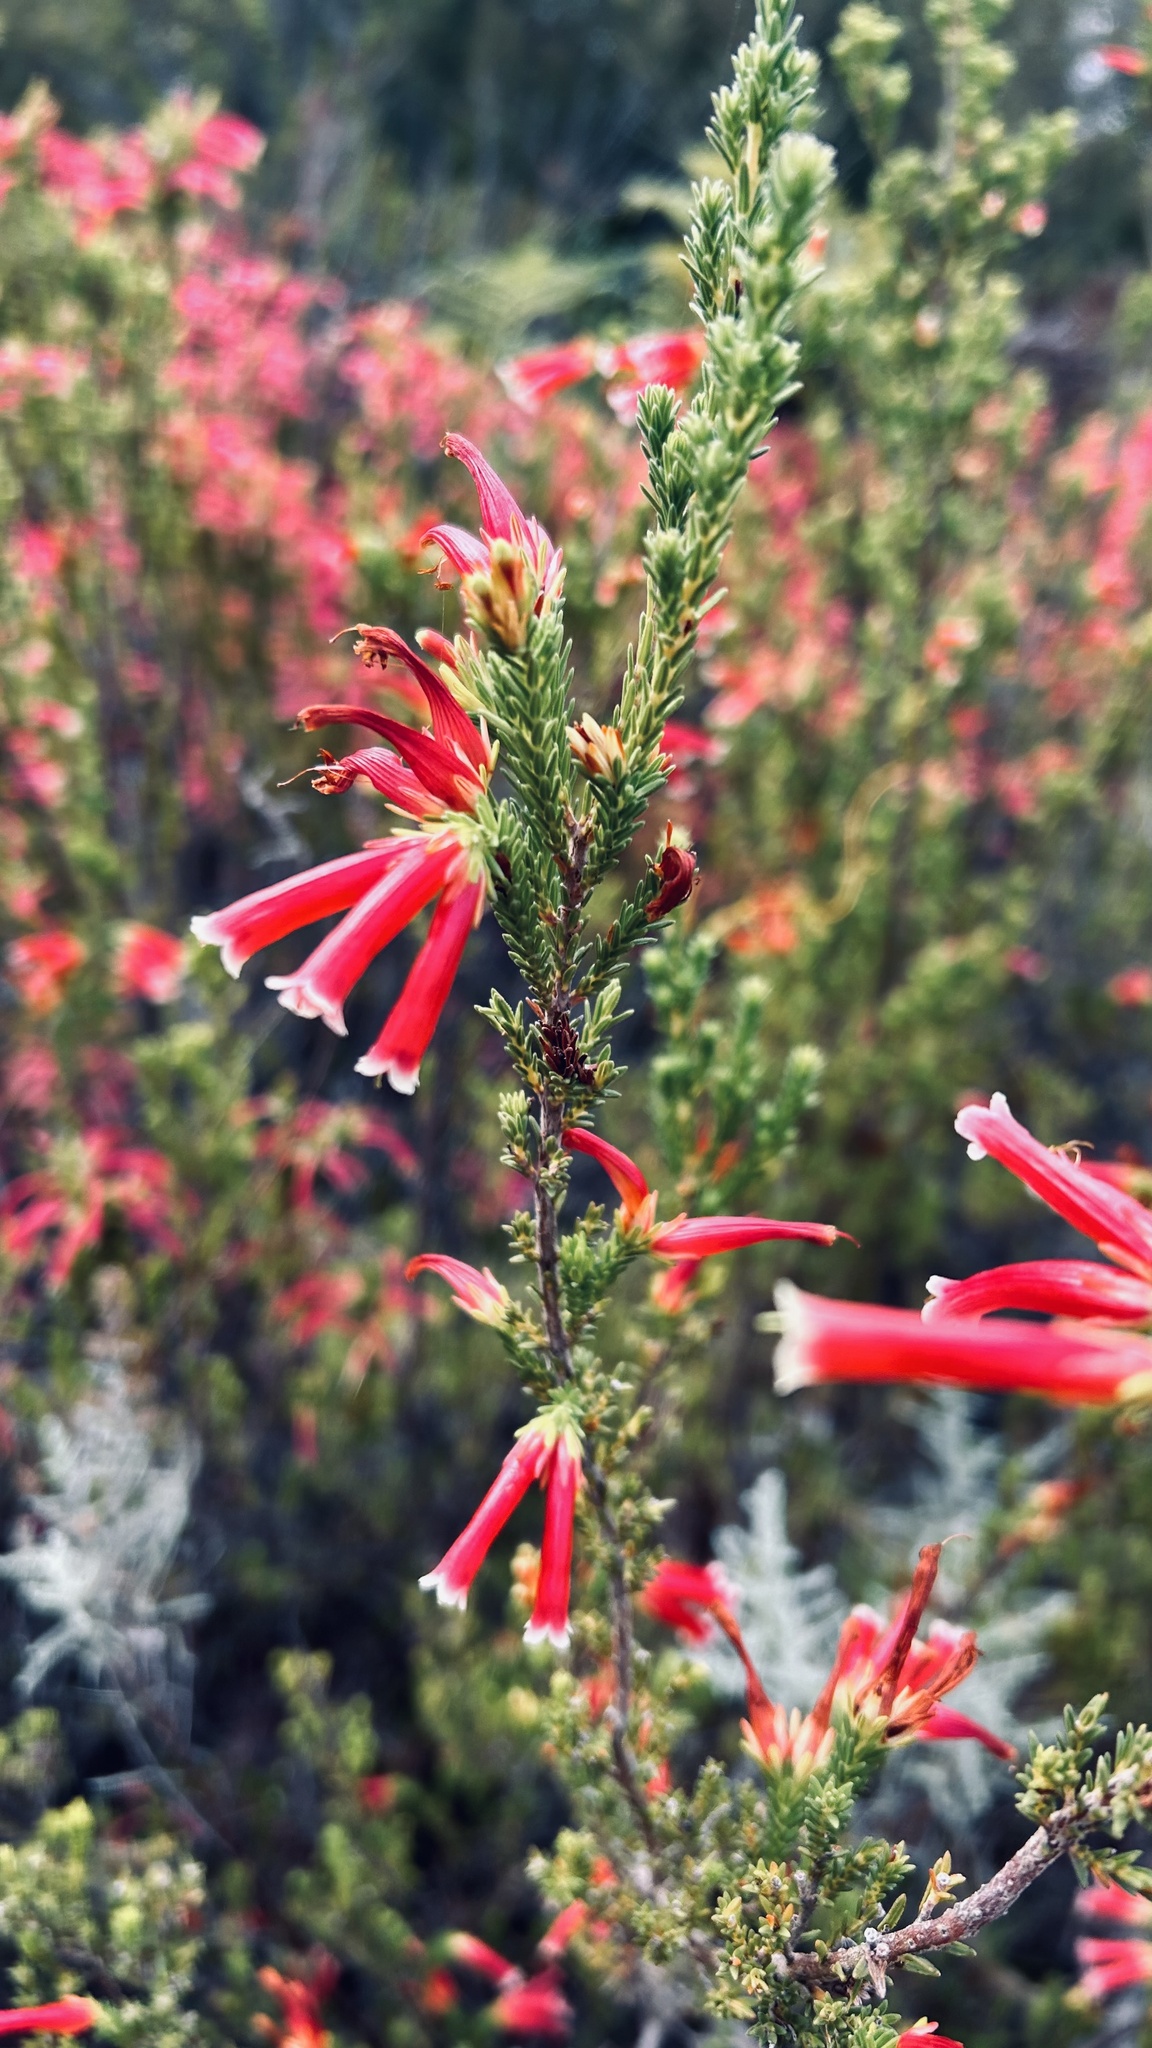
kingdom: Plantae
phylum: Tracheophyta
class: Magnoliopsida
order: Ericales
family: Ericaceae
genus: Erica
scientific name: Erica versicolor
